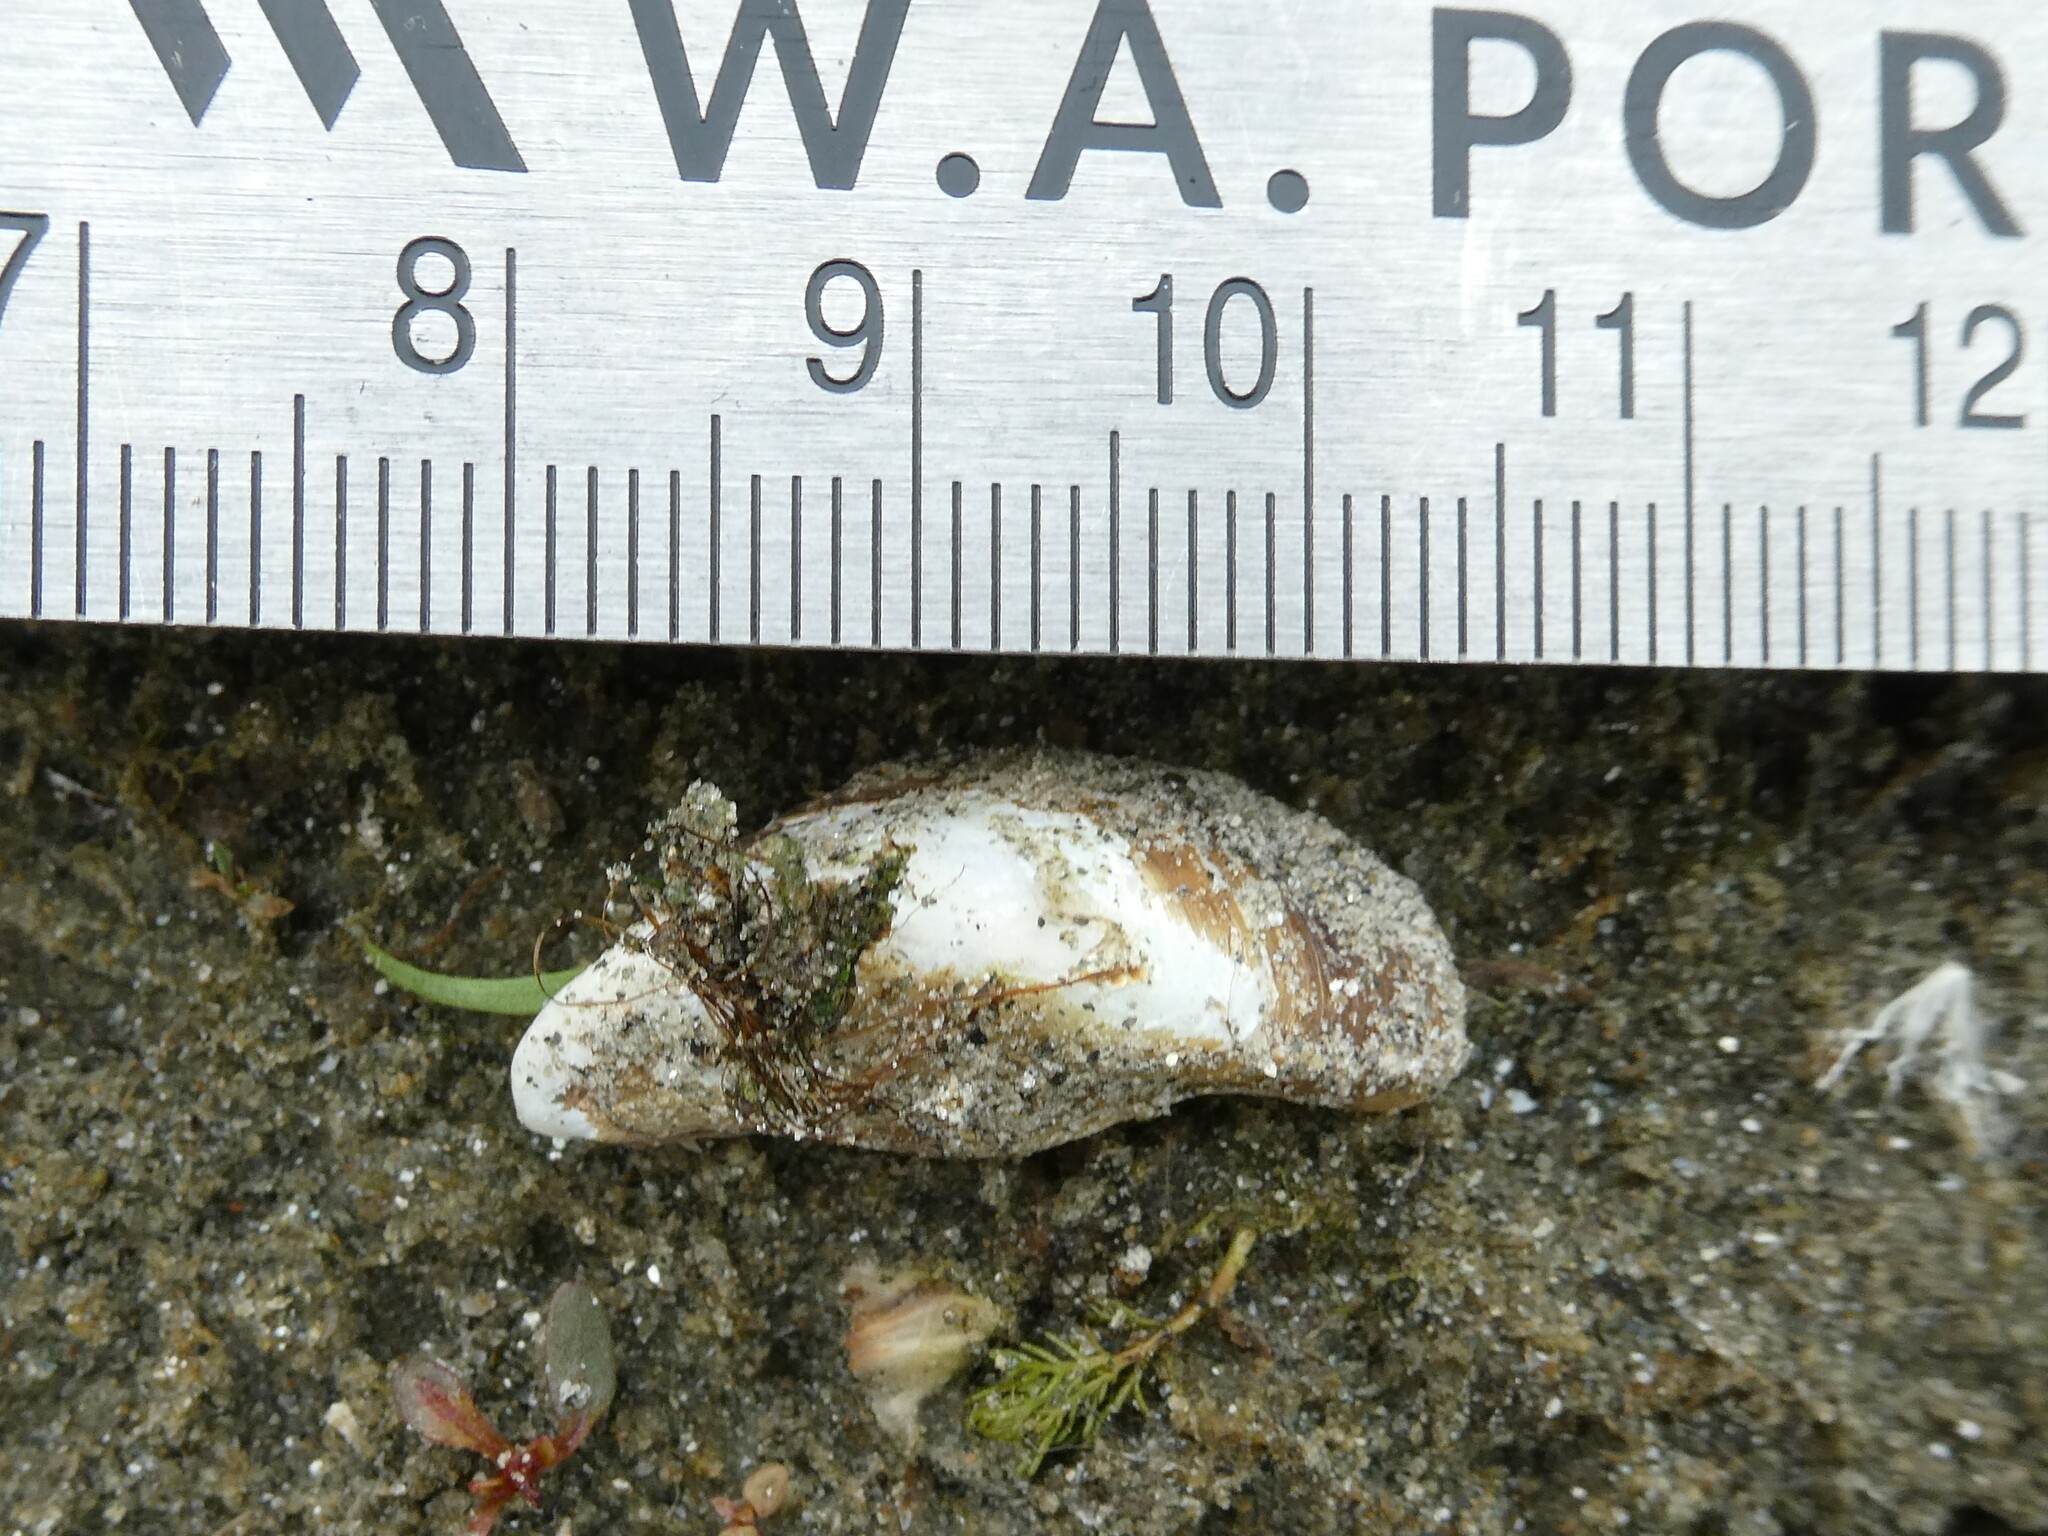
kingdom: Animalia
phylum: Mollusca
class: Bivalvia
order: Myida
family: Dreissenidae
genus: Dreissena
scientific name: Dreissena polymorpha
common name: Zebra mussel
